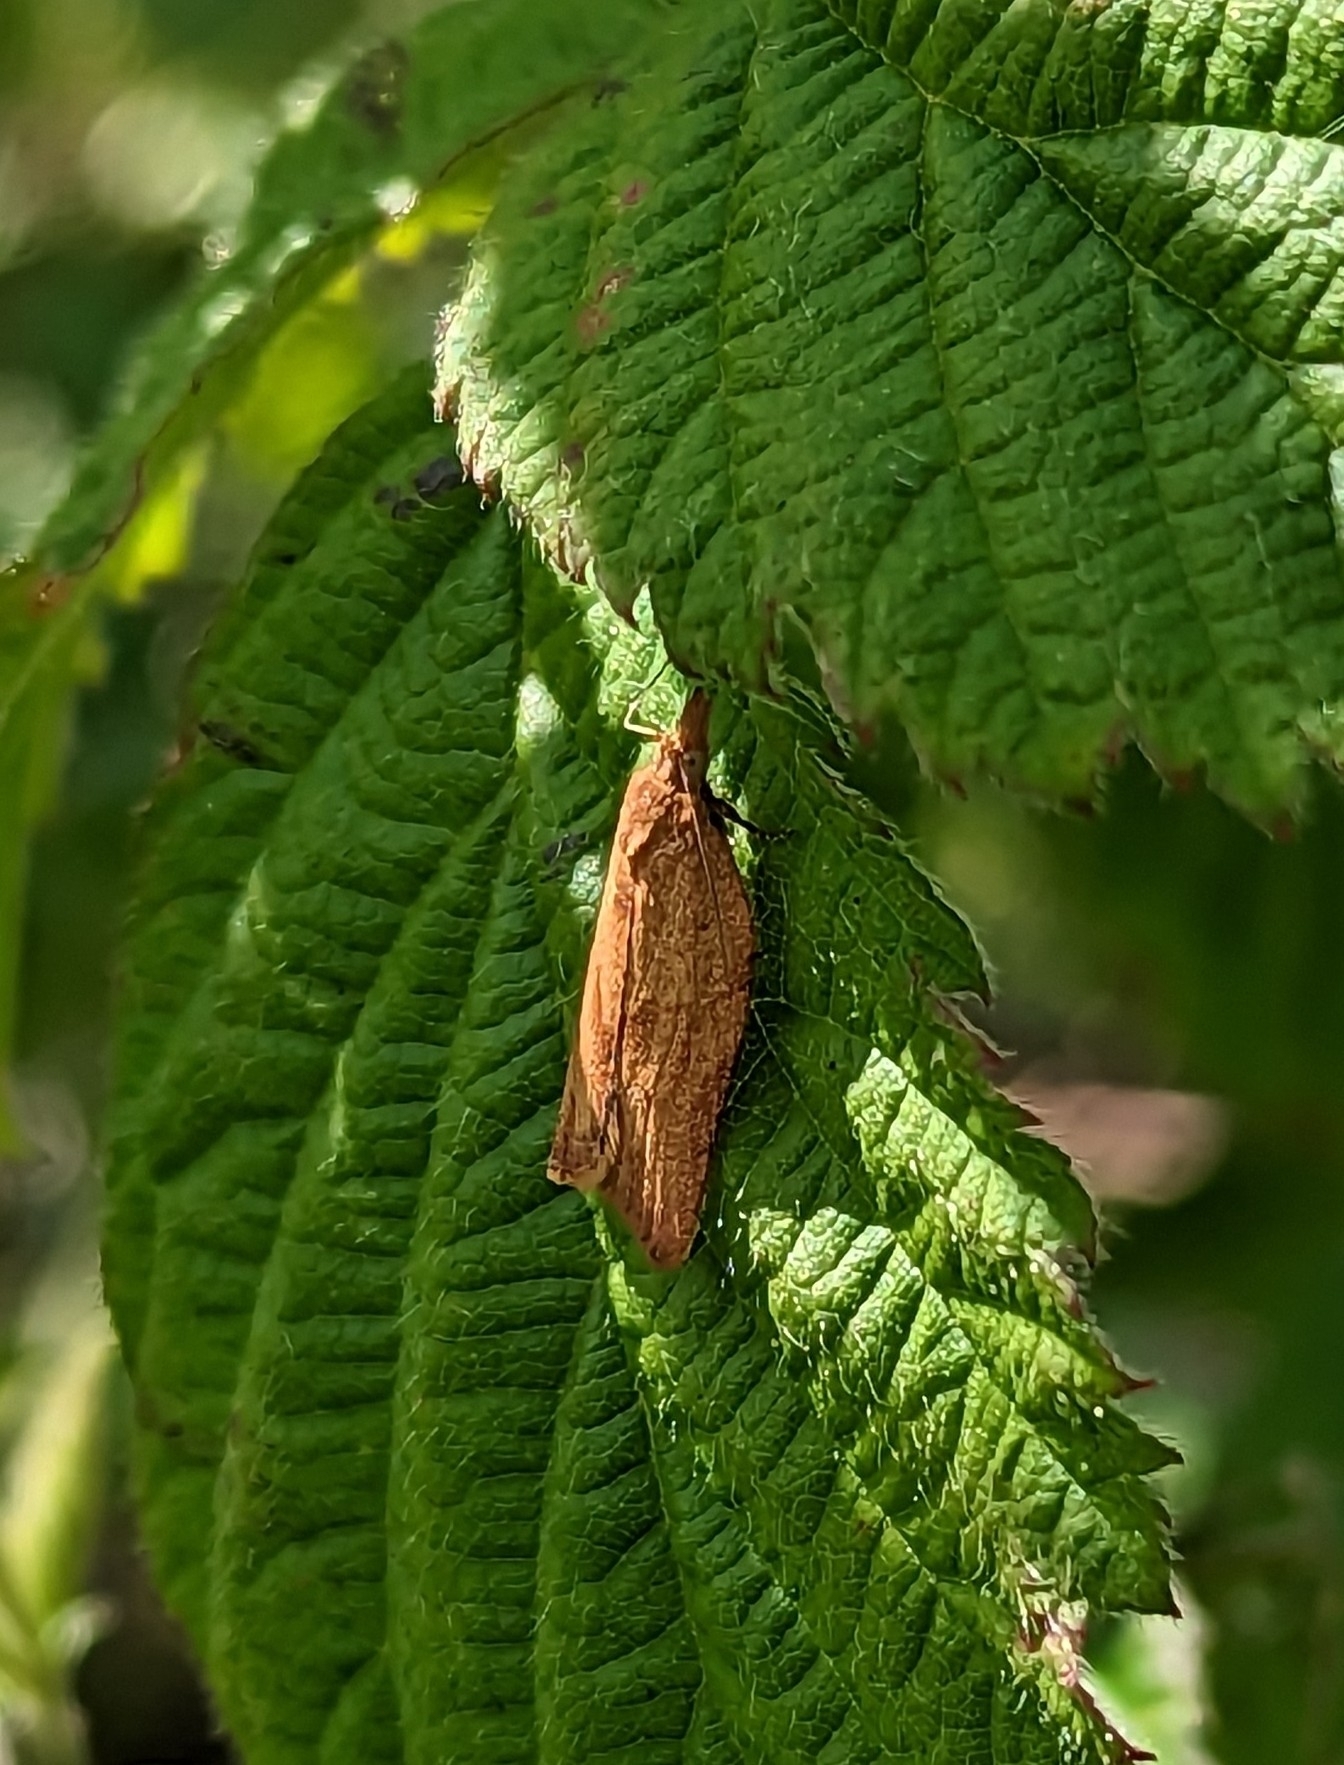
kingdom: Animalia
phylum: Arthropoda
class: Insecta
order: Lepidoptera
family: Tortricidae
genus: Epiphyas
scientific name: Epiphyas postvittana
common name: Light brown apple moth
